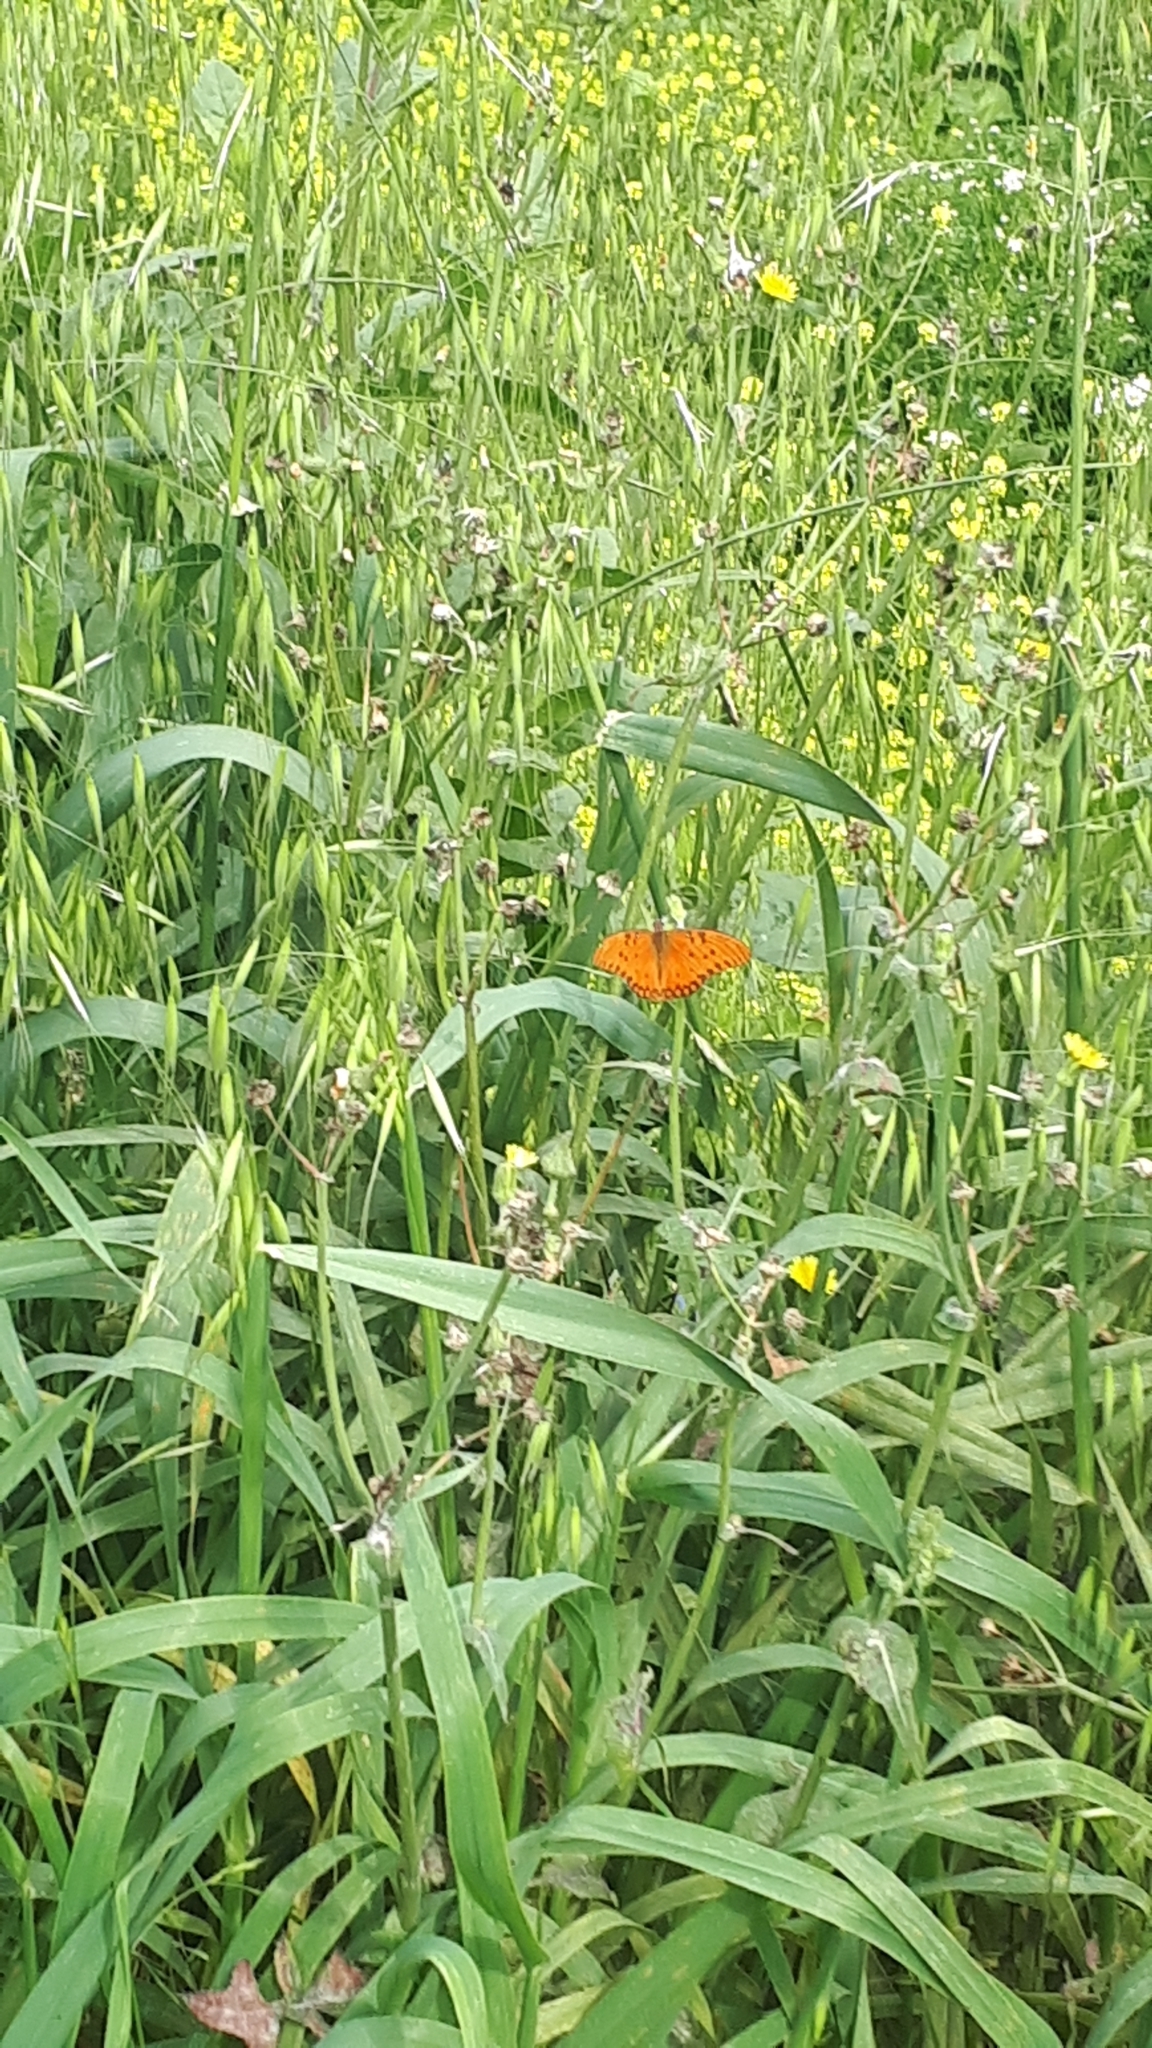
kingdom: Animalia
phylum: Arthropoda
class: Insecta
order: Lepidoptera
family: Nymphalidae
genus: Dione
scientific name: Dione vanillae
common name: Gulf fritillary
